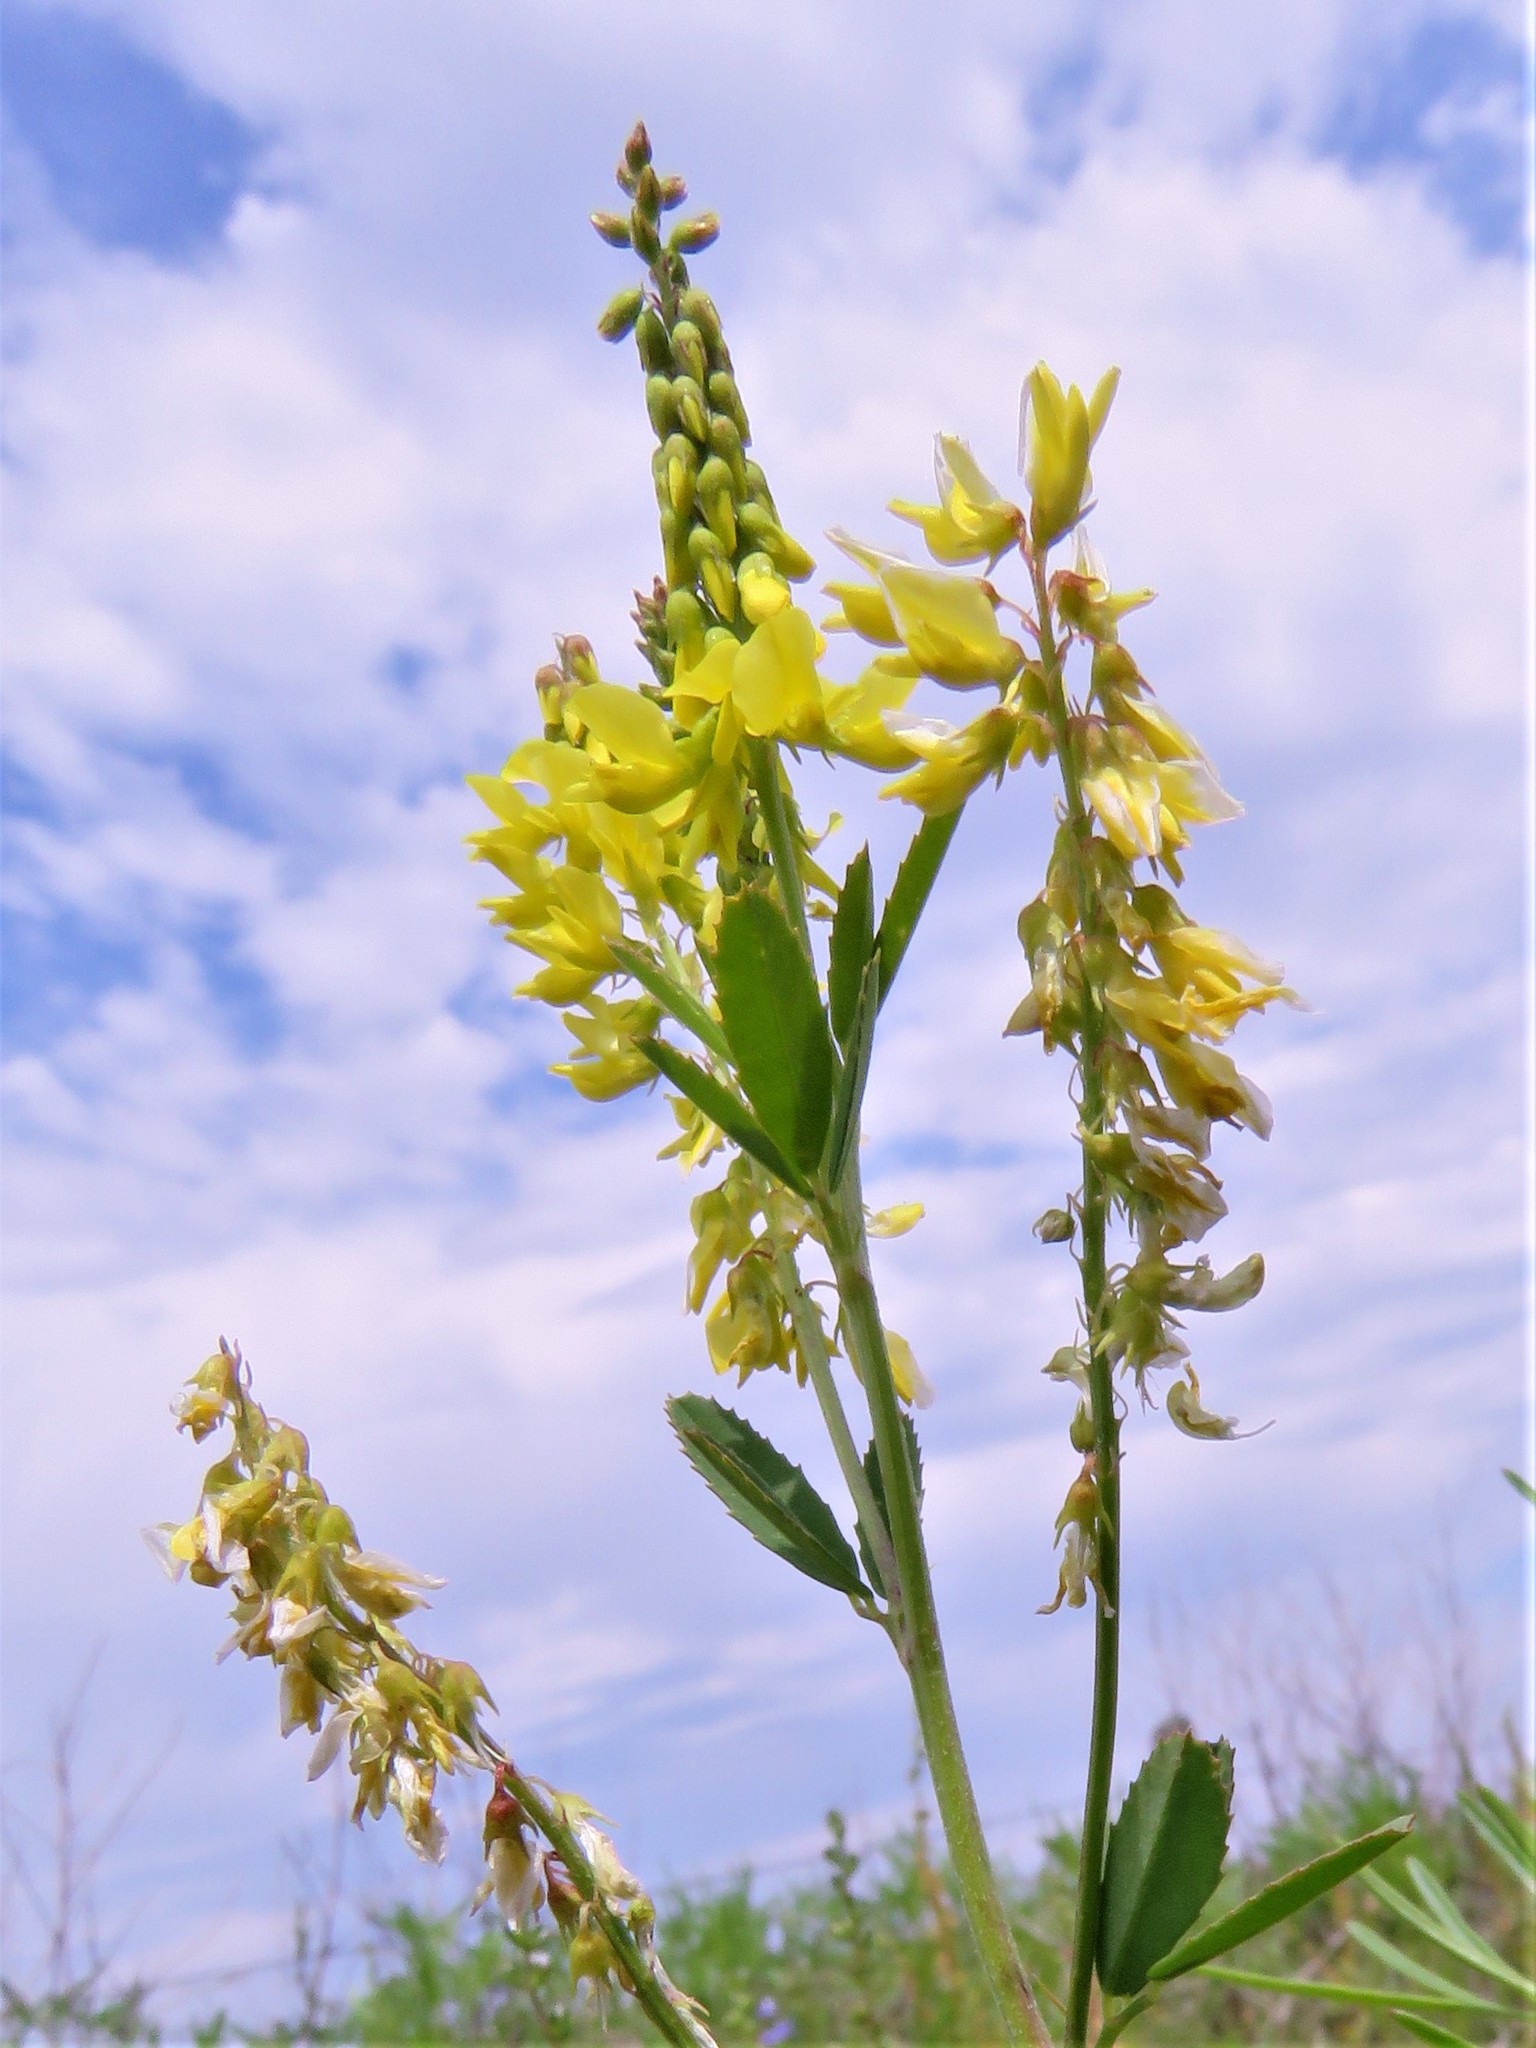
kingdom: Plantae
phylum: Tracheophyta
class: Magnoliopsida
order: Fabales
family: Fabaceae
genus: Melilotus
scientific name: Melilotus officinalis
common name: Sweetclover
